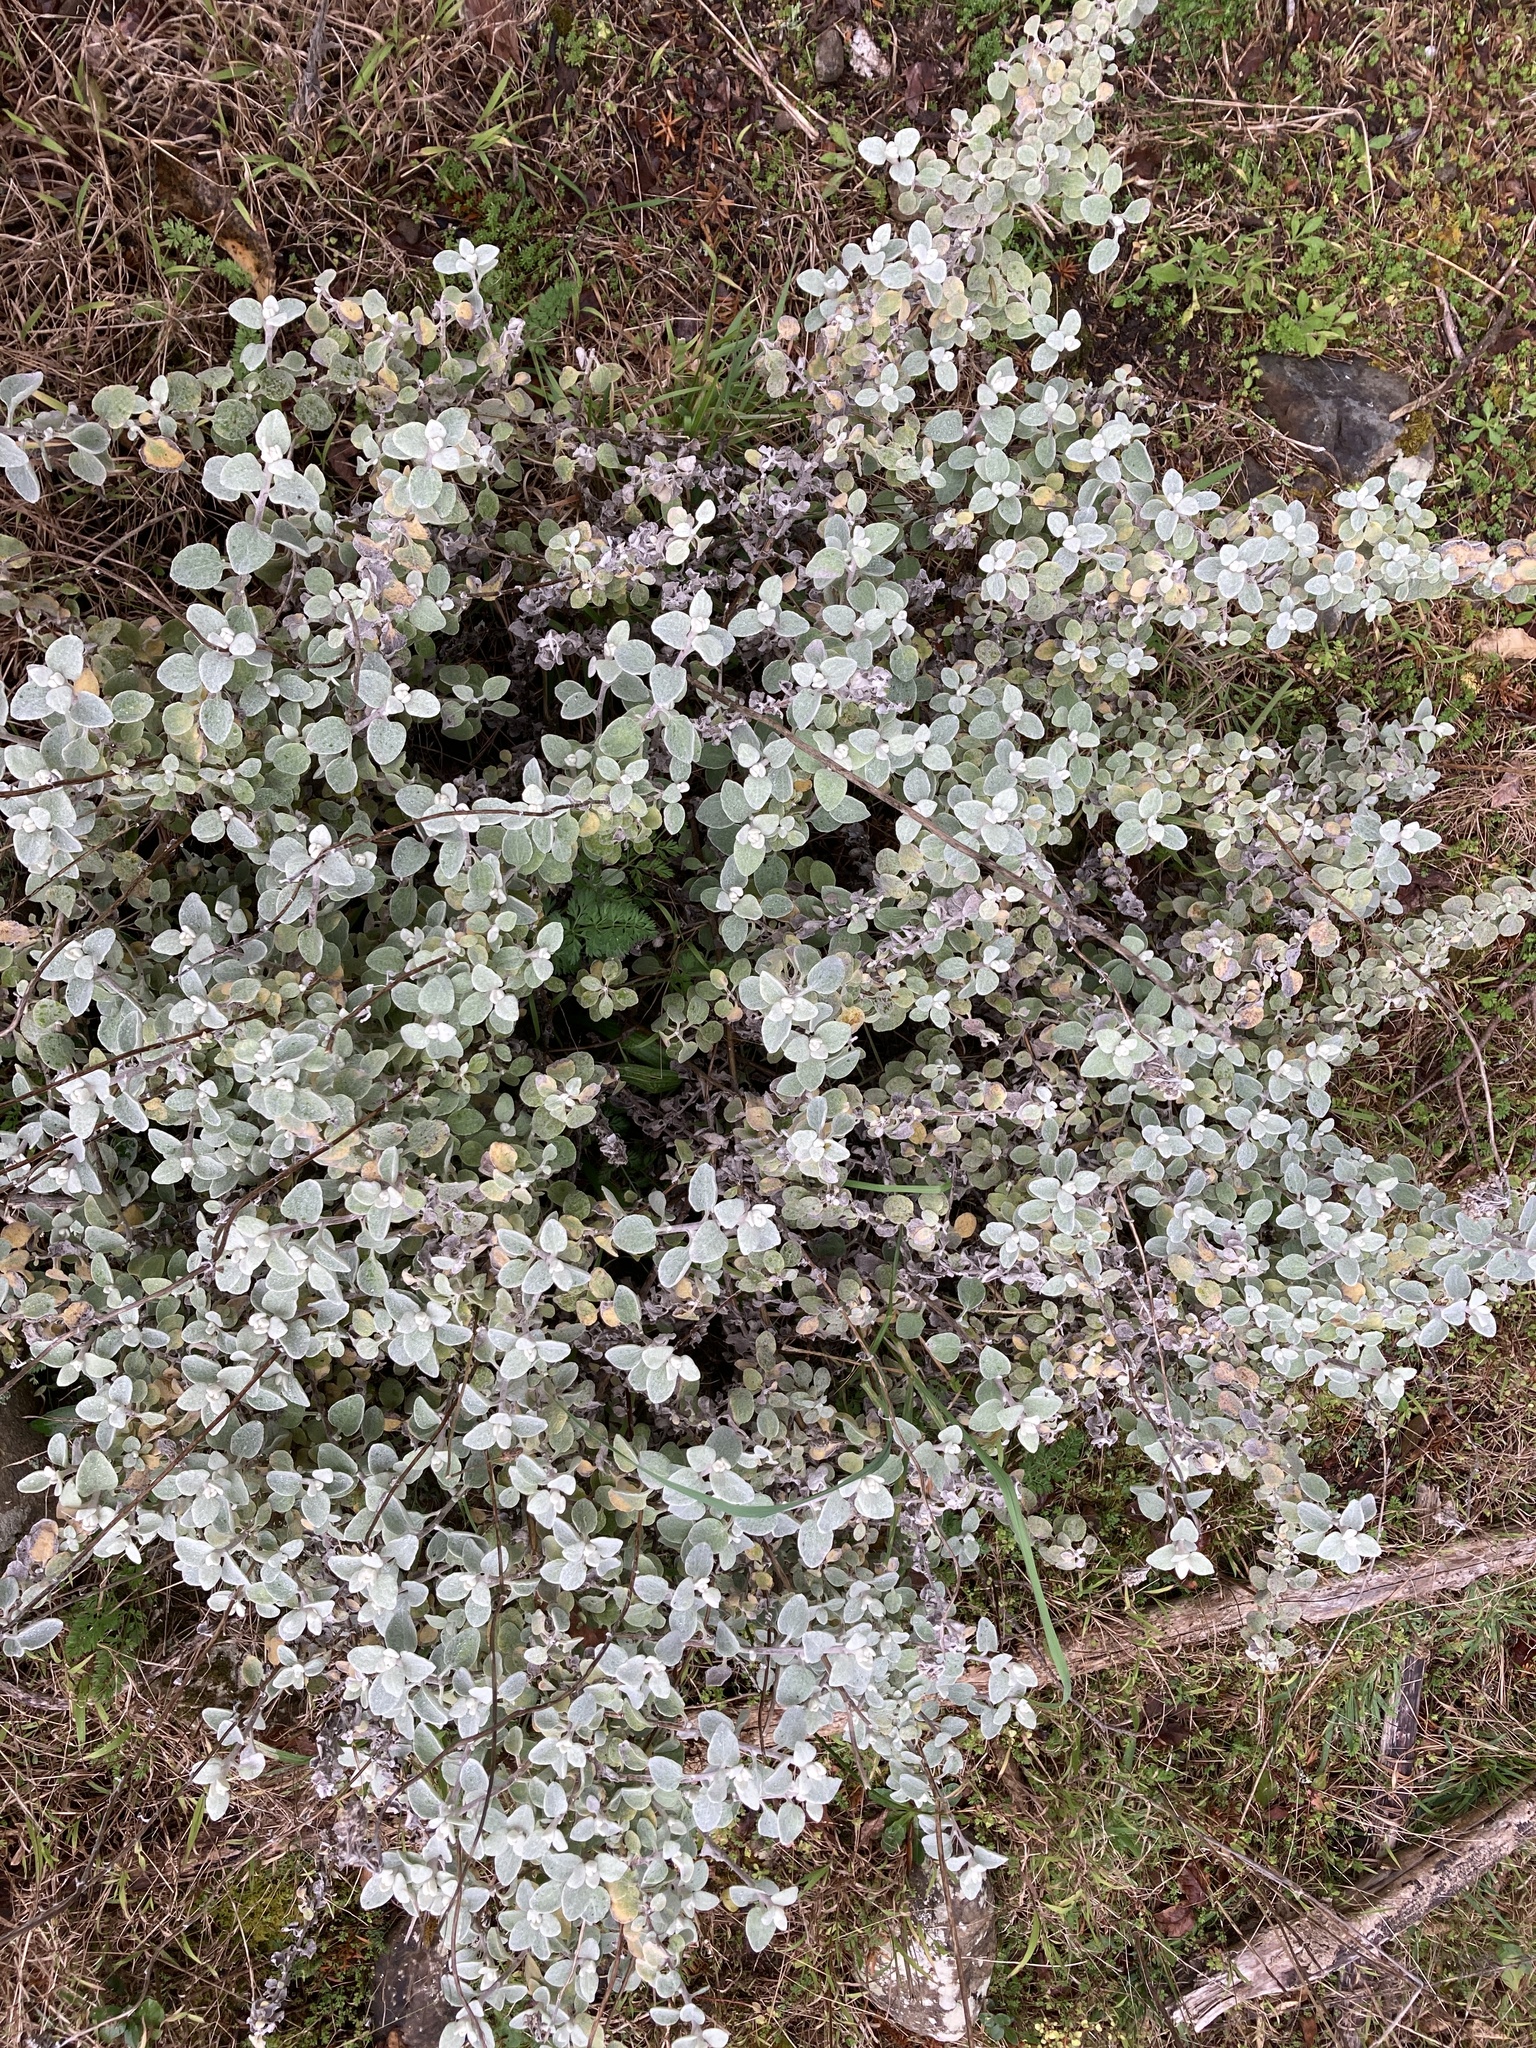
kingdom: Plantae
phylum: Tracheophyta
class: Magnoliopsida
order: Asterales
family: Asteraceae
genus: Helichrysum
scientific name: Helichrysum petiolare
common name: Licorice-plant
